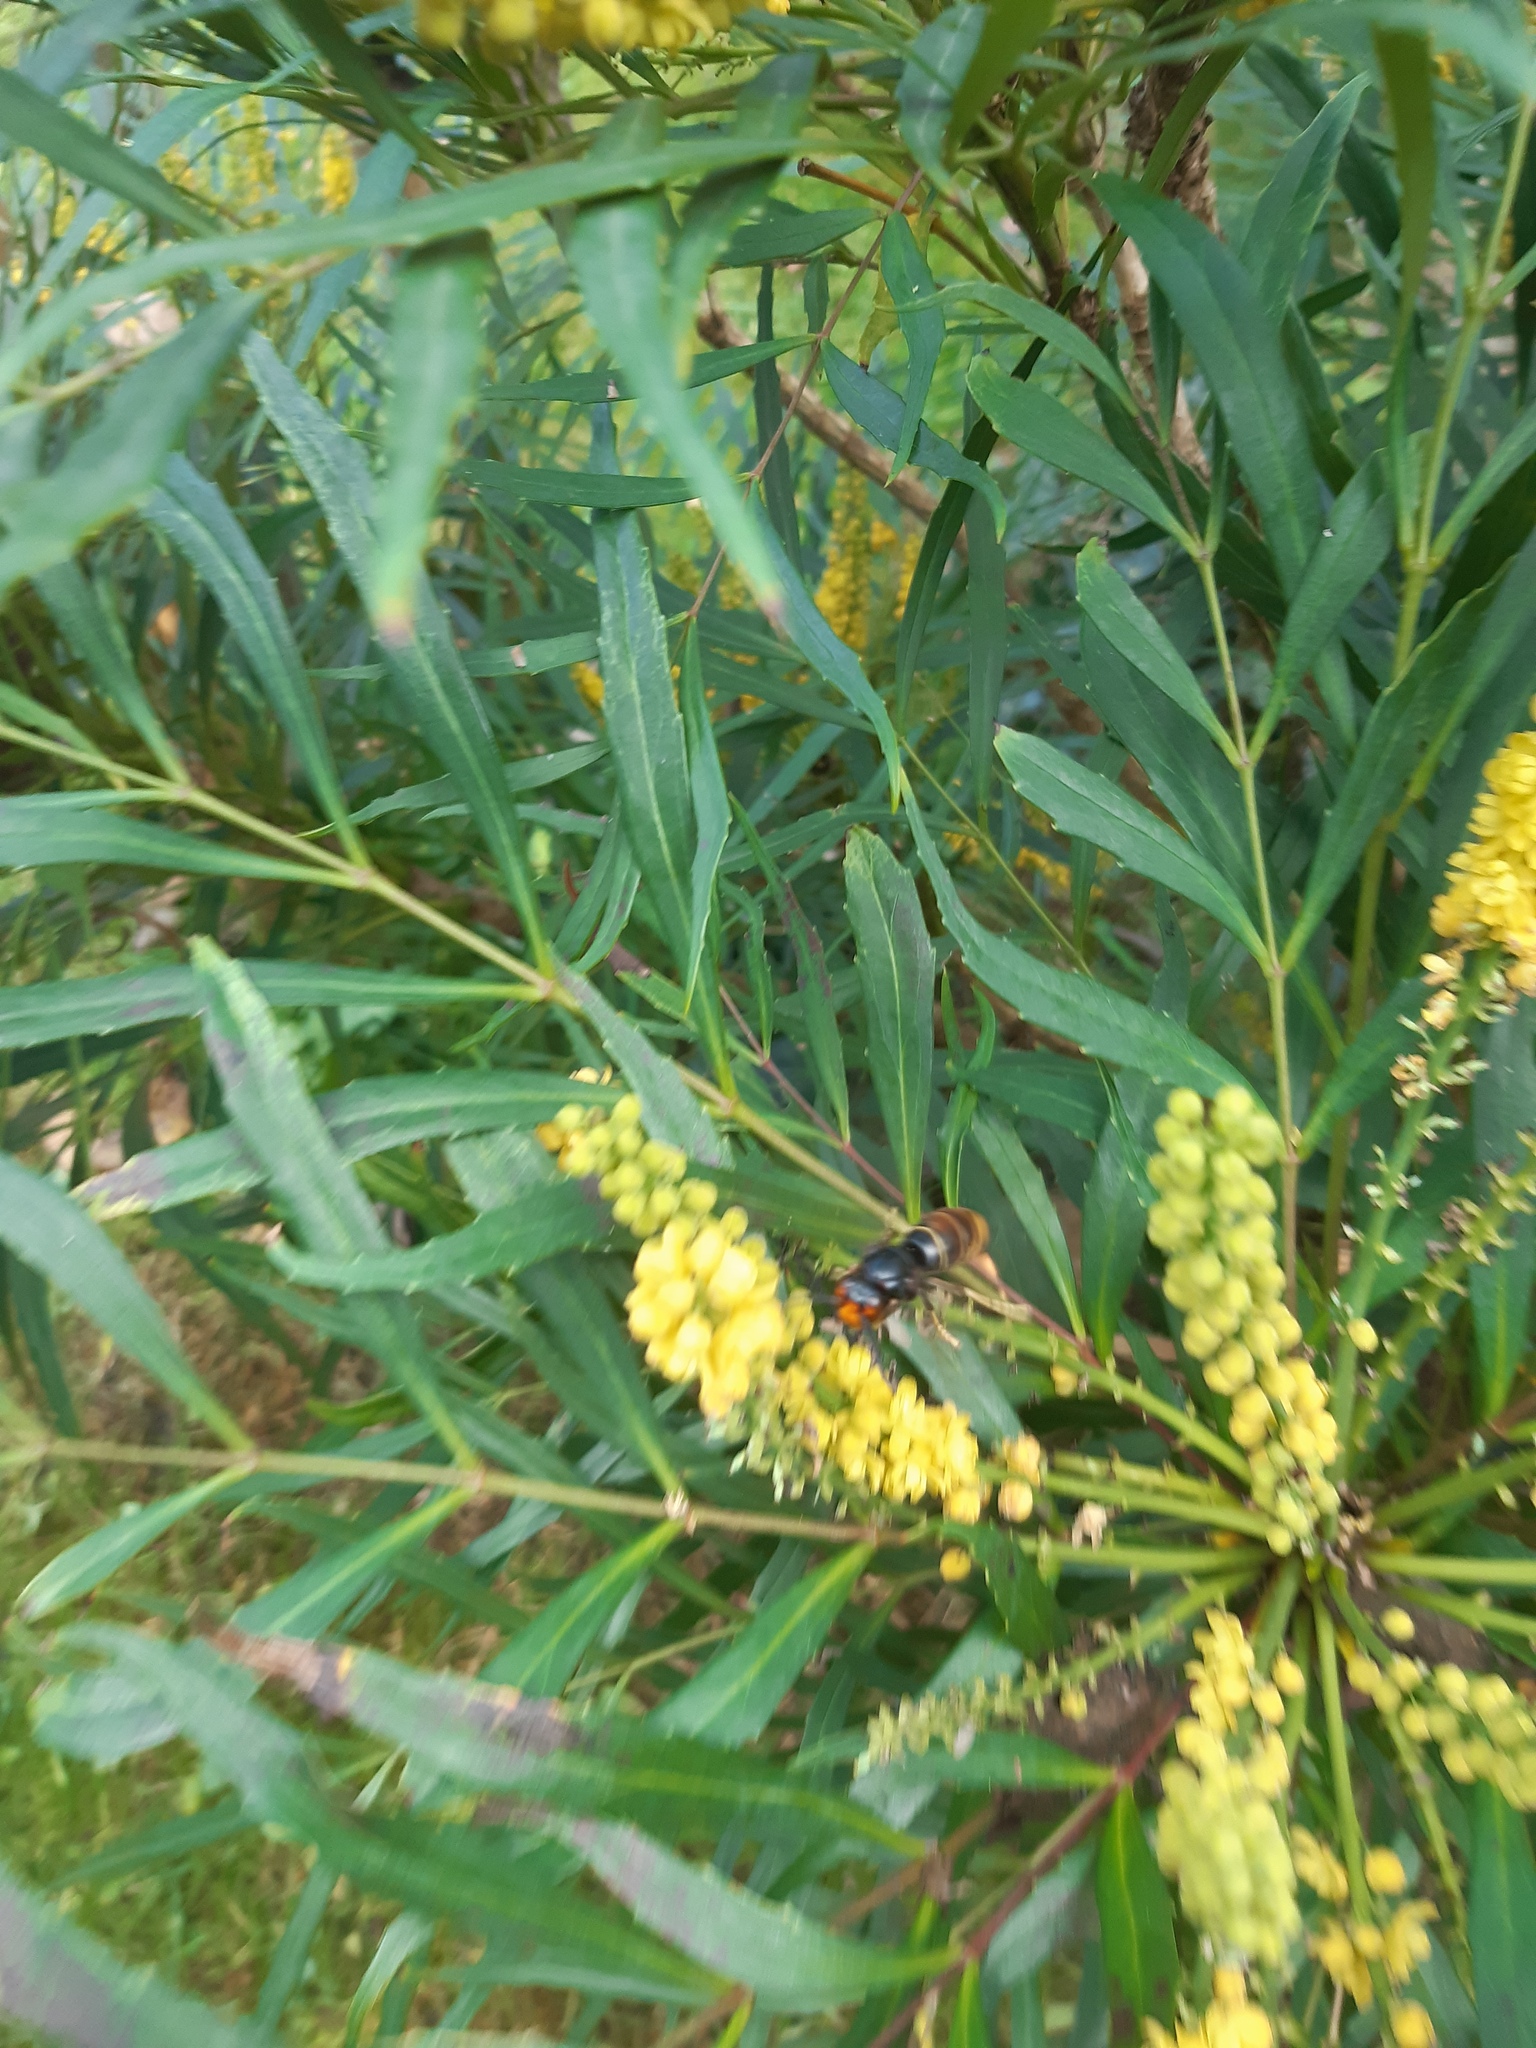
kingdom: Animalia
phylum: Arthropoda
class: Insecta
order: Hymenoptera
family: Vespidae
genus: Vespa
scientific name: Vespa velutina
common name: Asian hornet
